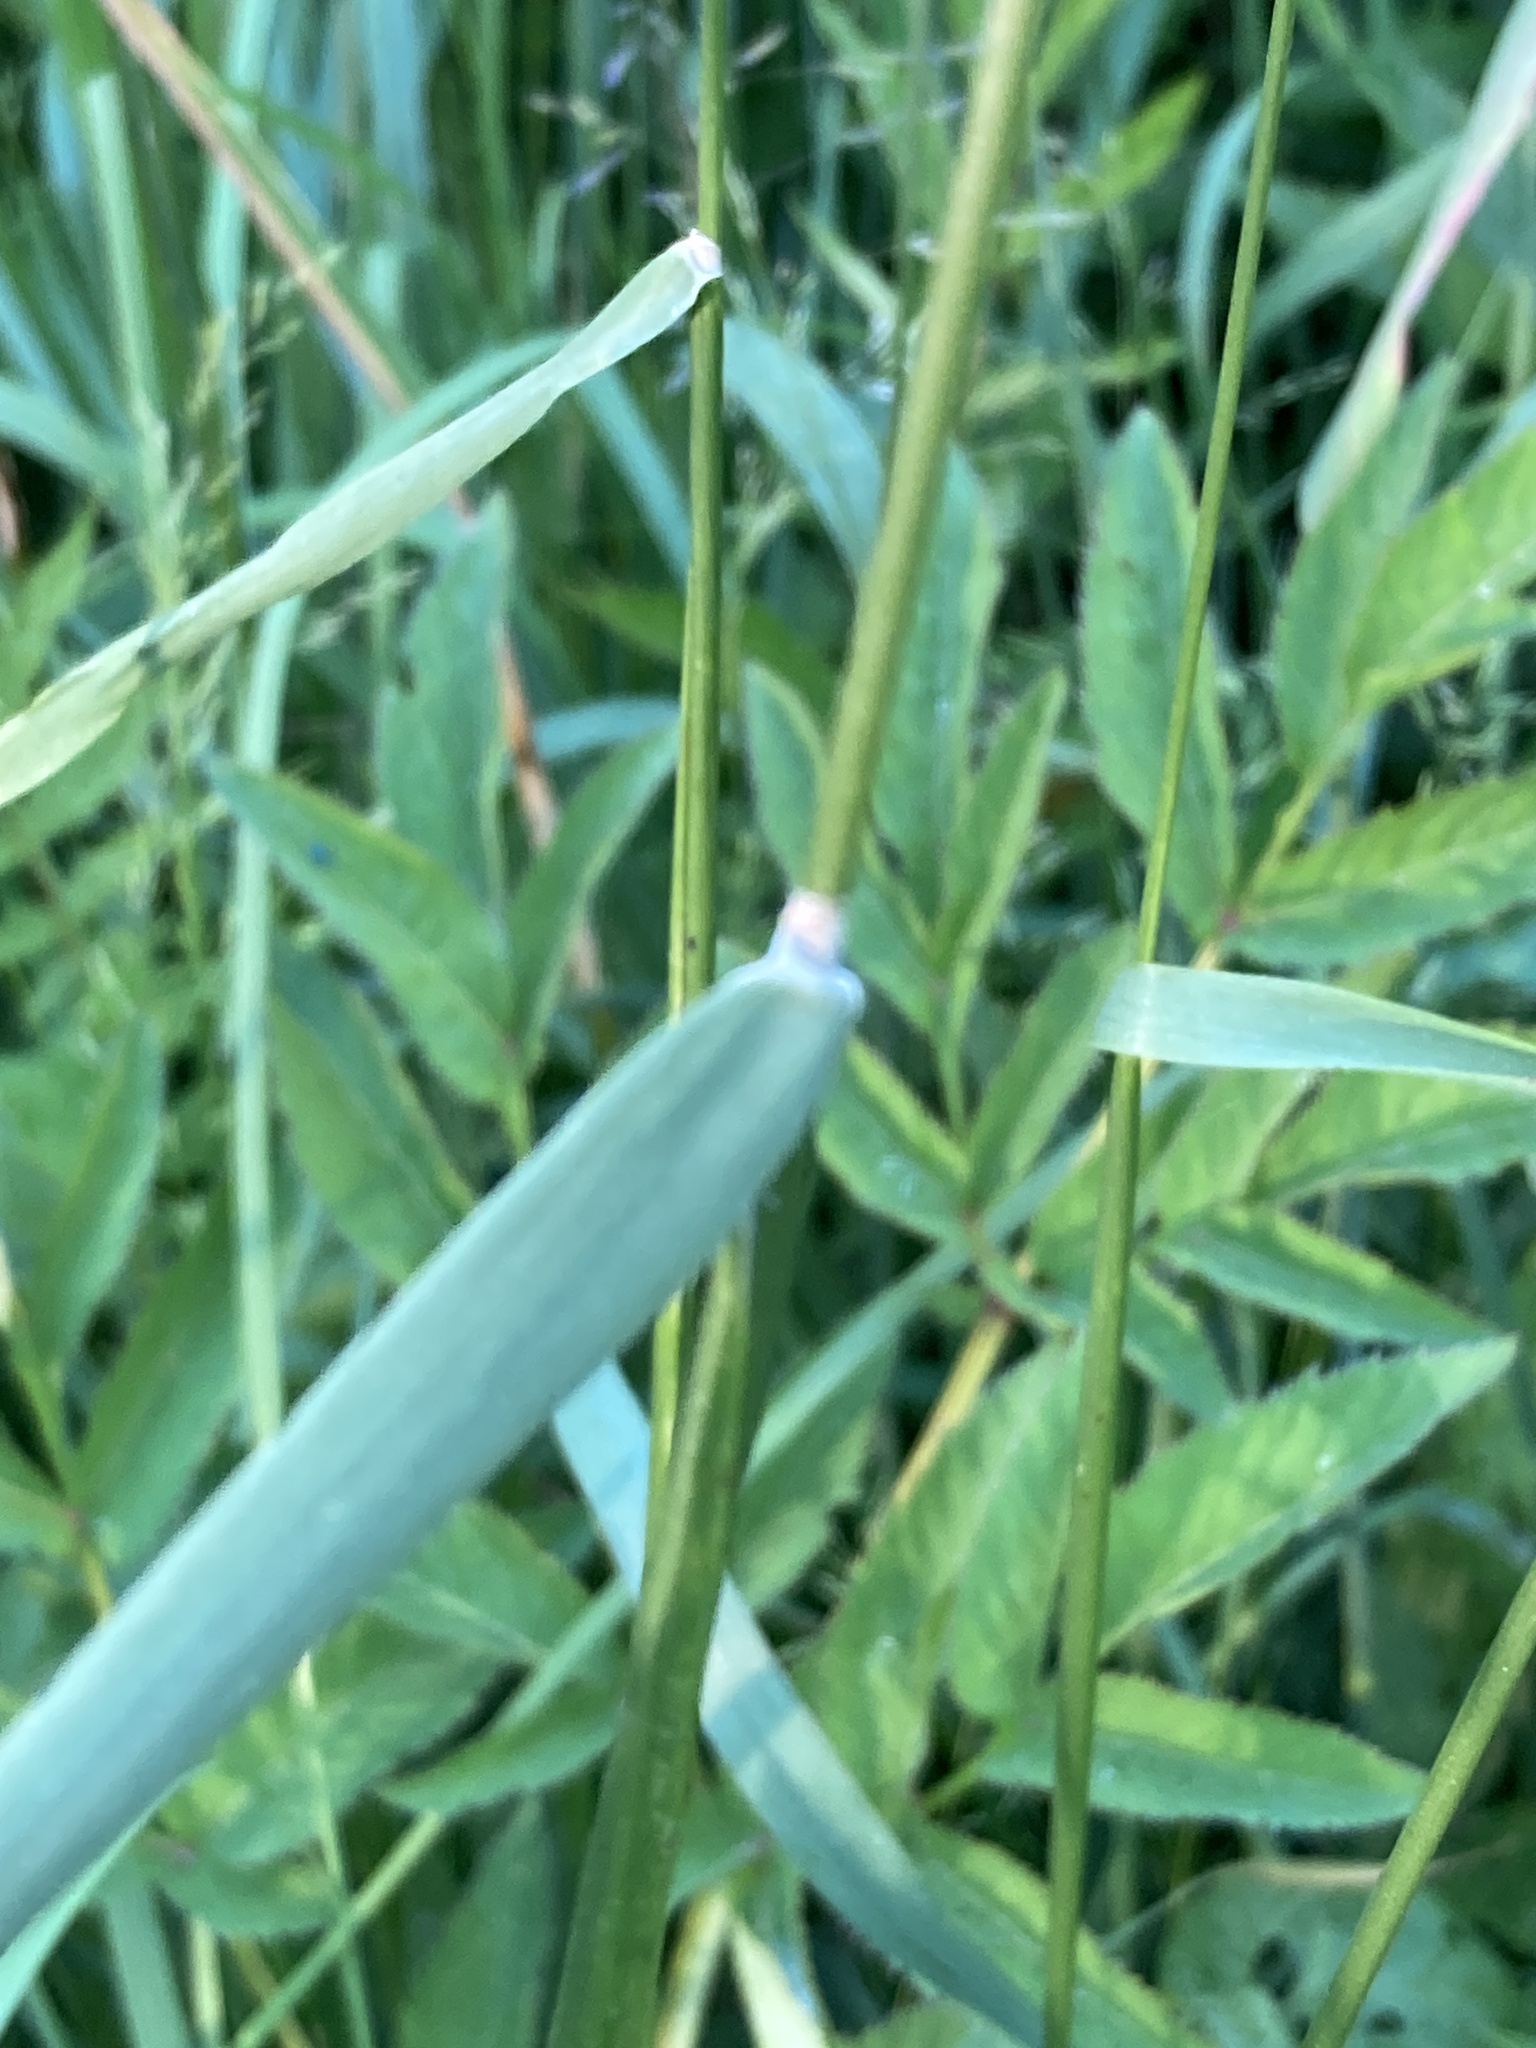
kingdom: Plantae
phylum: Tracheophyta
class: Liliopsida
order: Poales
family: Poaceae
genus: Alopecurus
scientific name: Alopecurus pratensis
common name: Meadow foxtail
